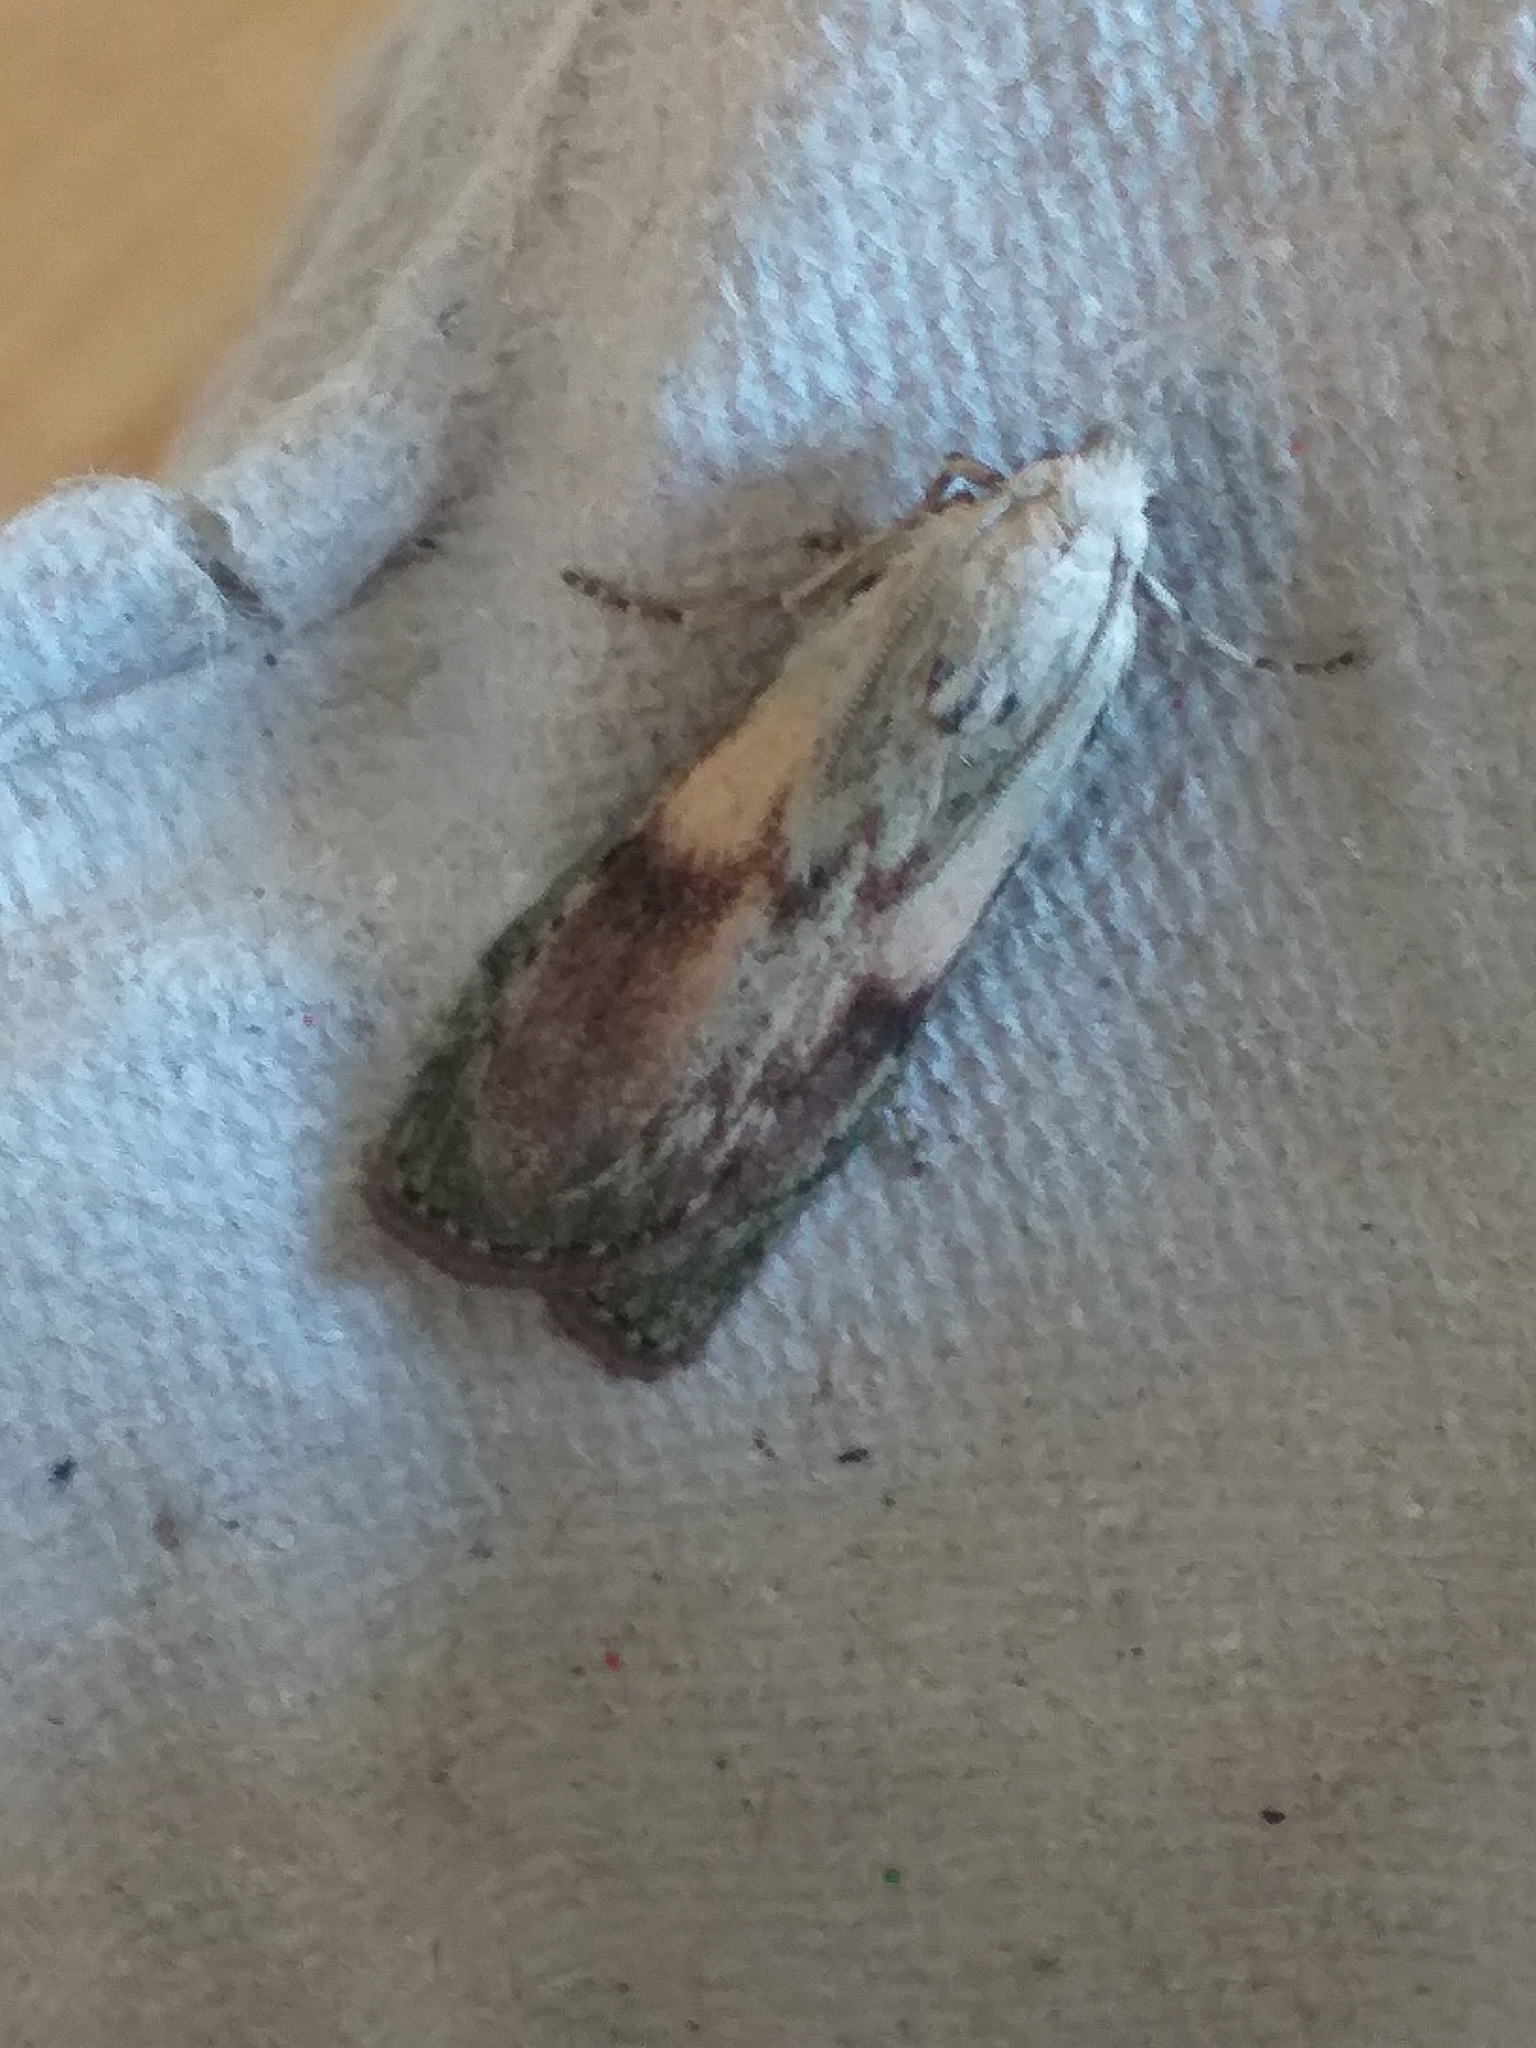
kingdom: Animalia
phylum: Arthropoda
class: Insecta
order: Lepidoptera
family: Pyralidae
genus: Aphomia
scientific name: Aphomia sociella
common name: Bee moth
